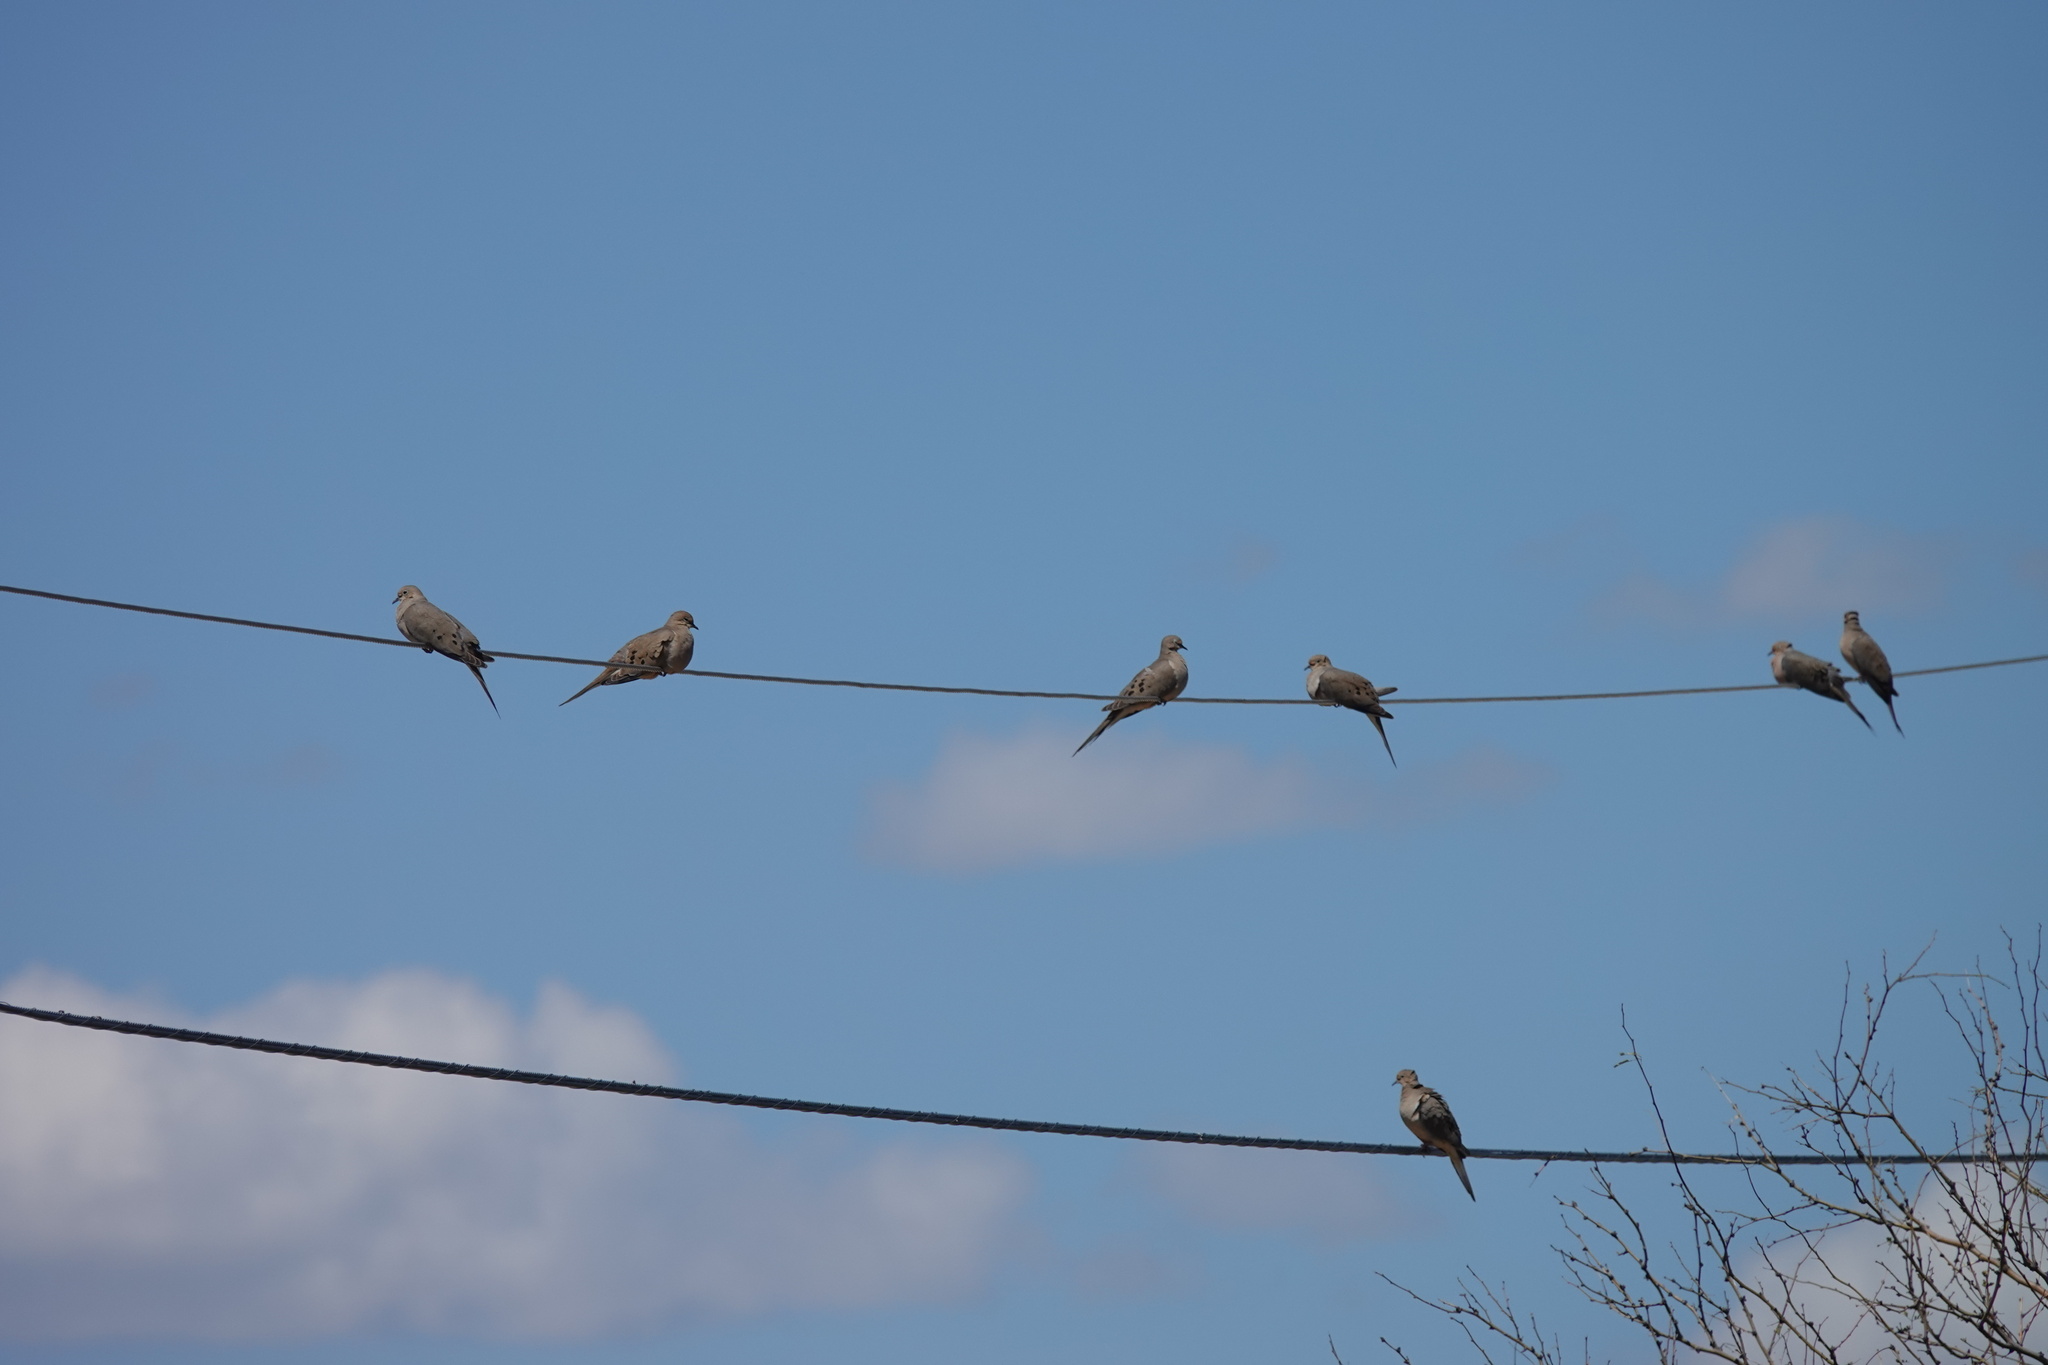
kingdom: Animalia
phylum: Chordata
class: Aves
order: Columbiformes
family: Columbidae
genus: Zenaida
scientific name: Zenaida macroura
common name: Mourning dove
